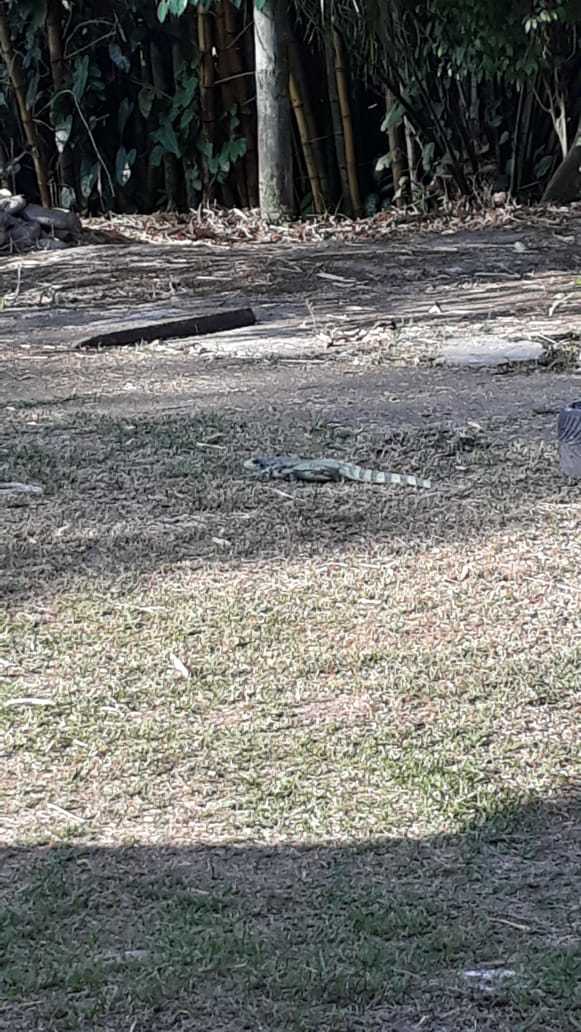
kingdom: Animalia
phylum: Chordata
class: Squamata
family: Iguanidae
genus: Iguana
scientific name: Iguana iguana
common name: Green iguana
